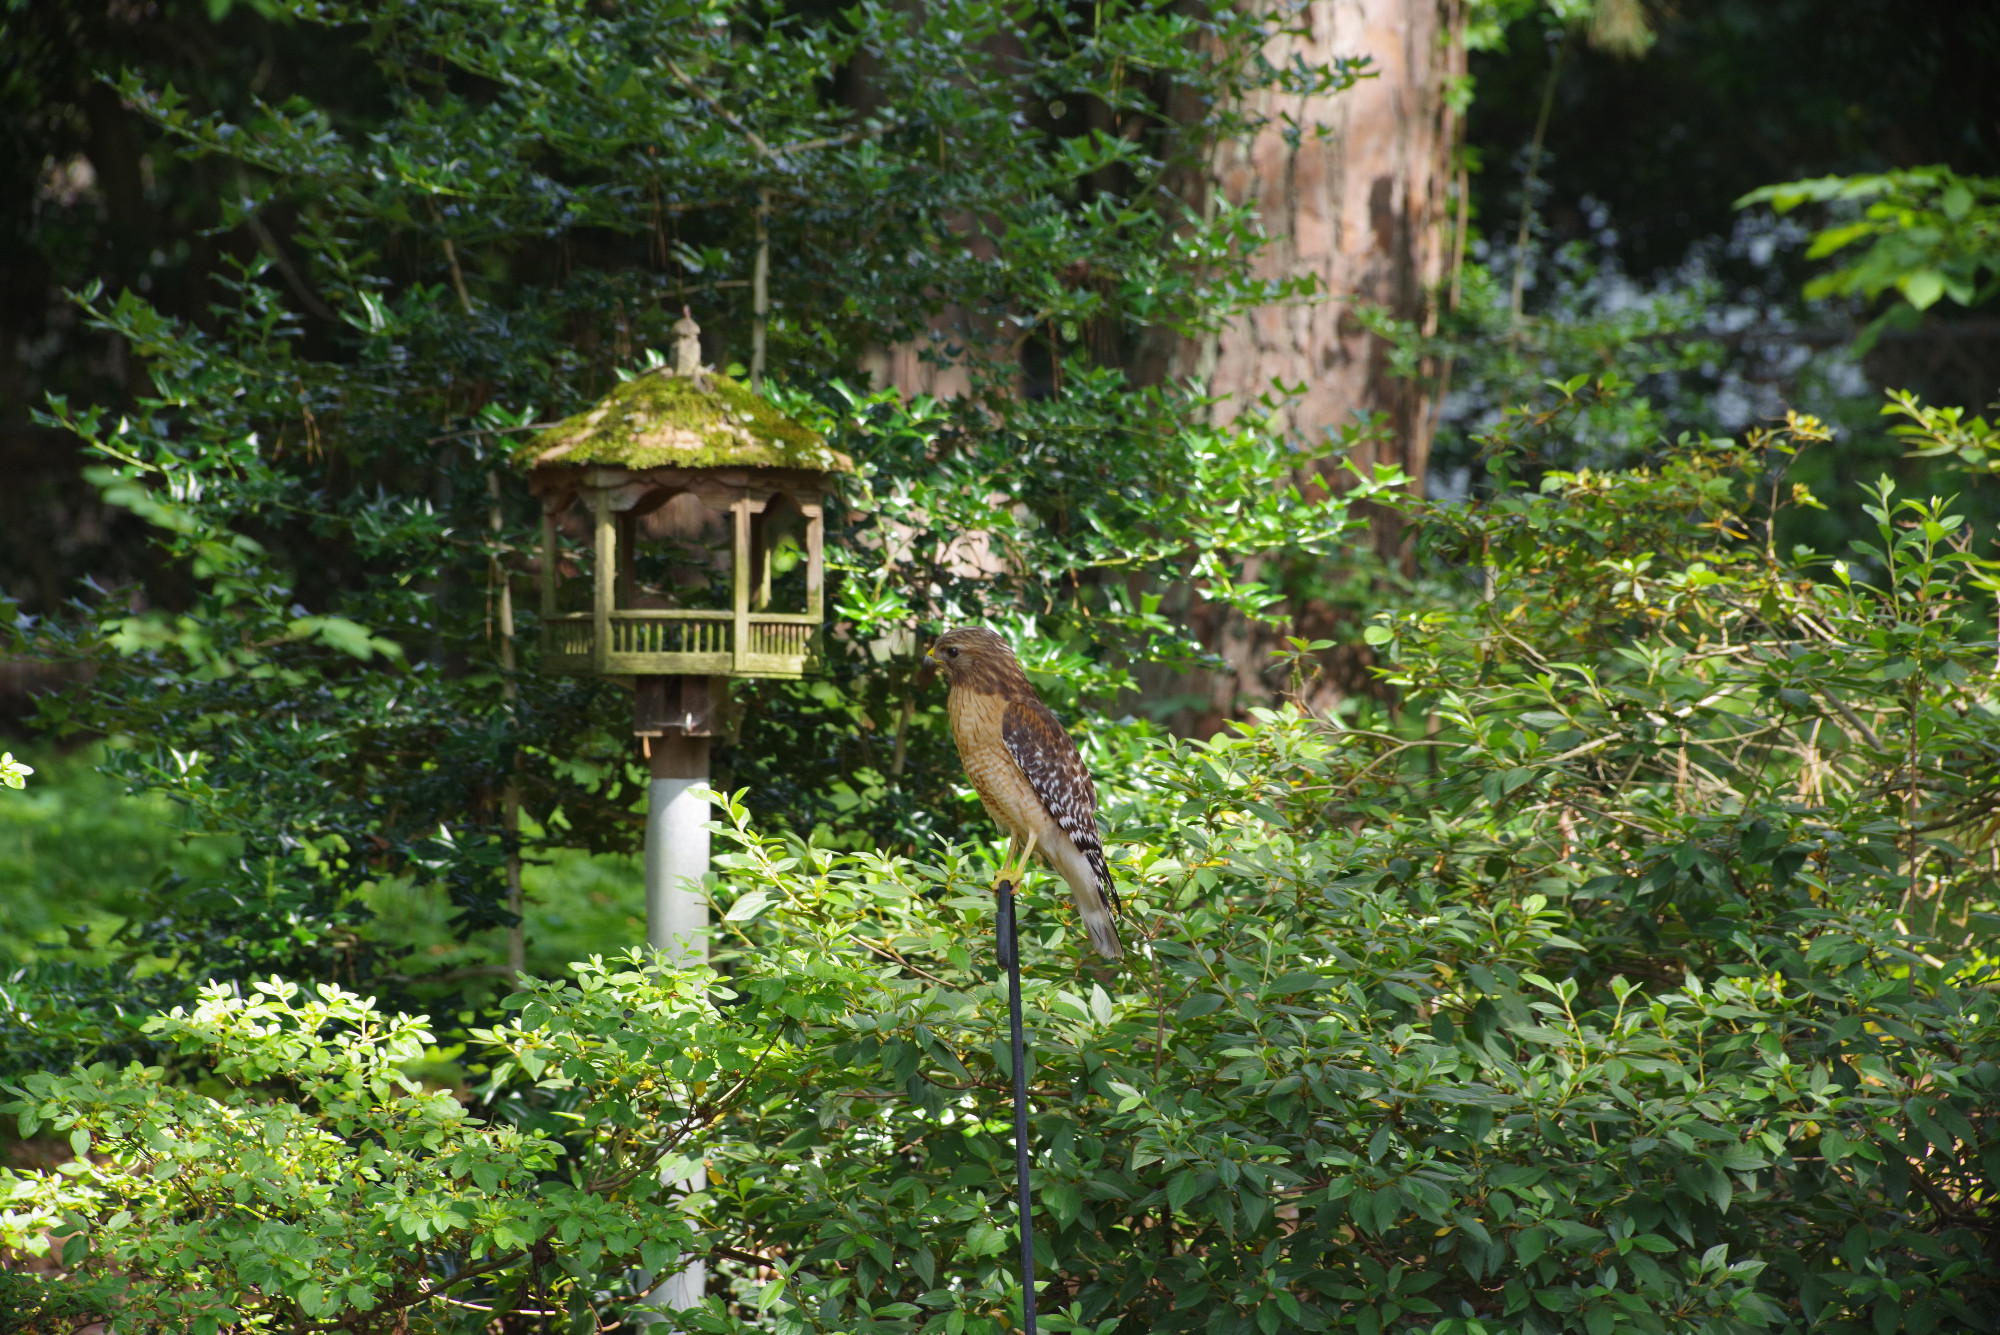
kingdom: Animalia
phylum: Chordata
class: Aves
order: Accipitriformes
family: Accipitridae
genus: Buteo
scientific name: Buteo lineatus
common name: Red-shouldered hawk
